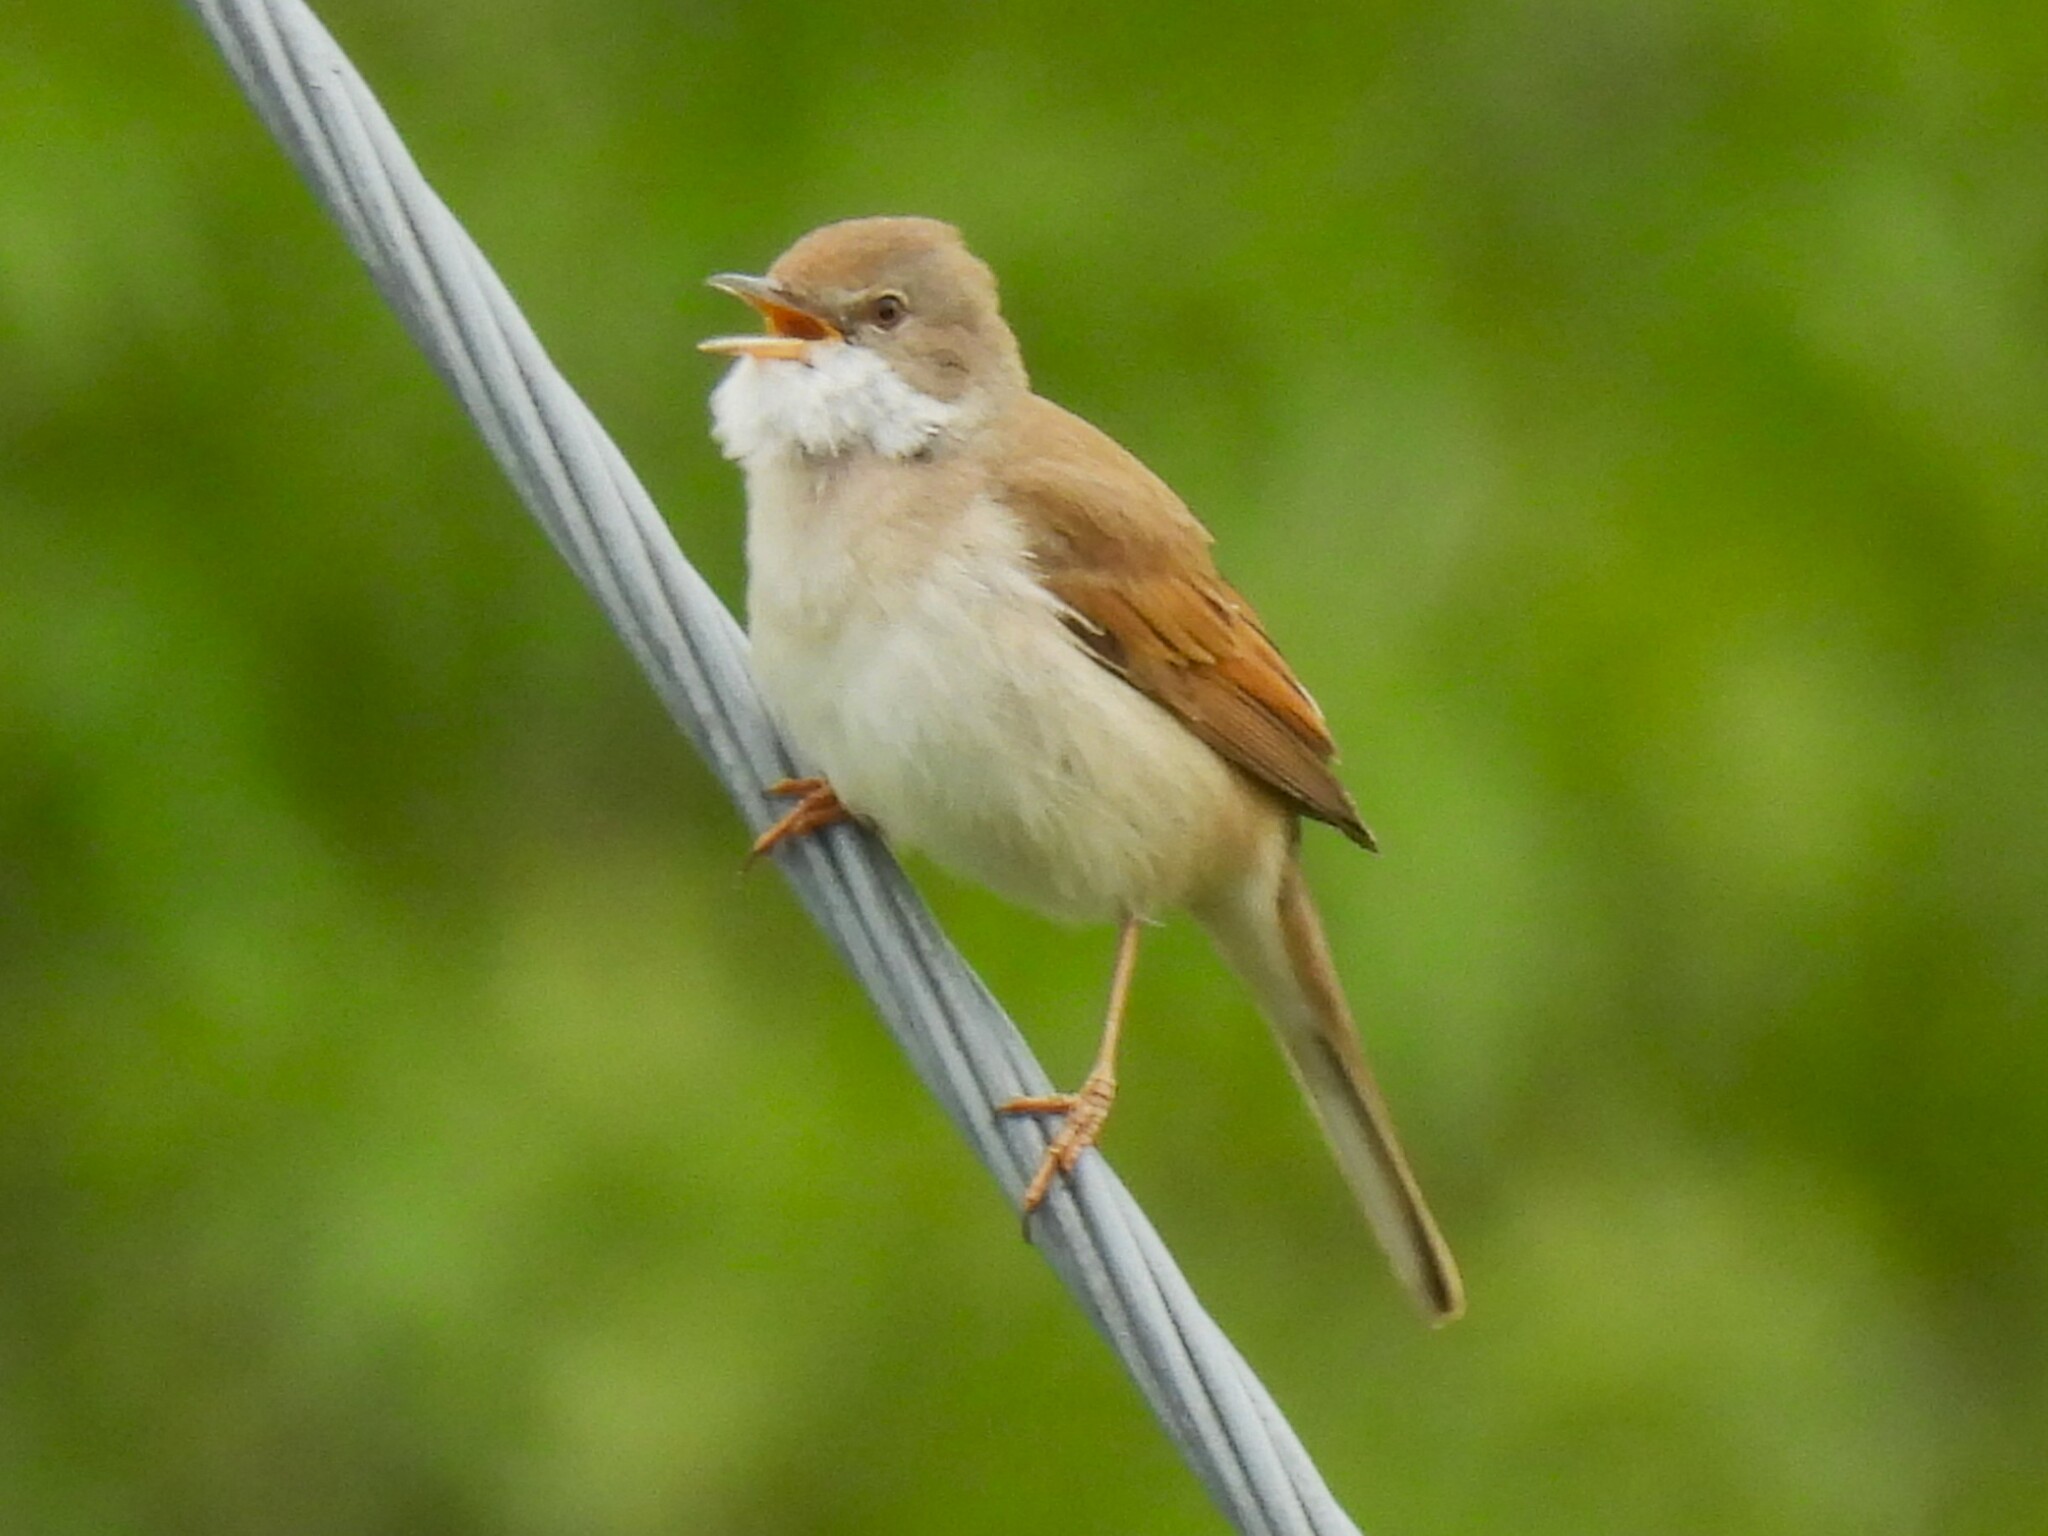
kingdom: Animalia
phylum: Chordata
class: Aves
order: Passeriformes
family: Sylviidae
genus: Sylvia
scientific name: Sylvia communis
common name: Common whitethroat
